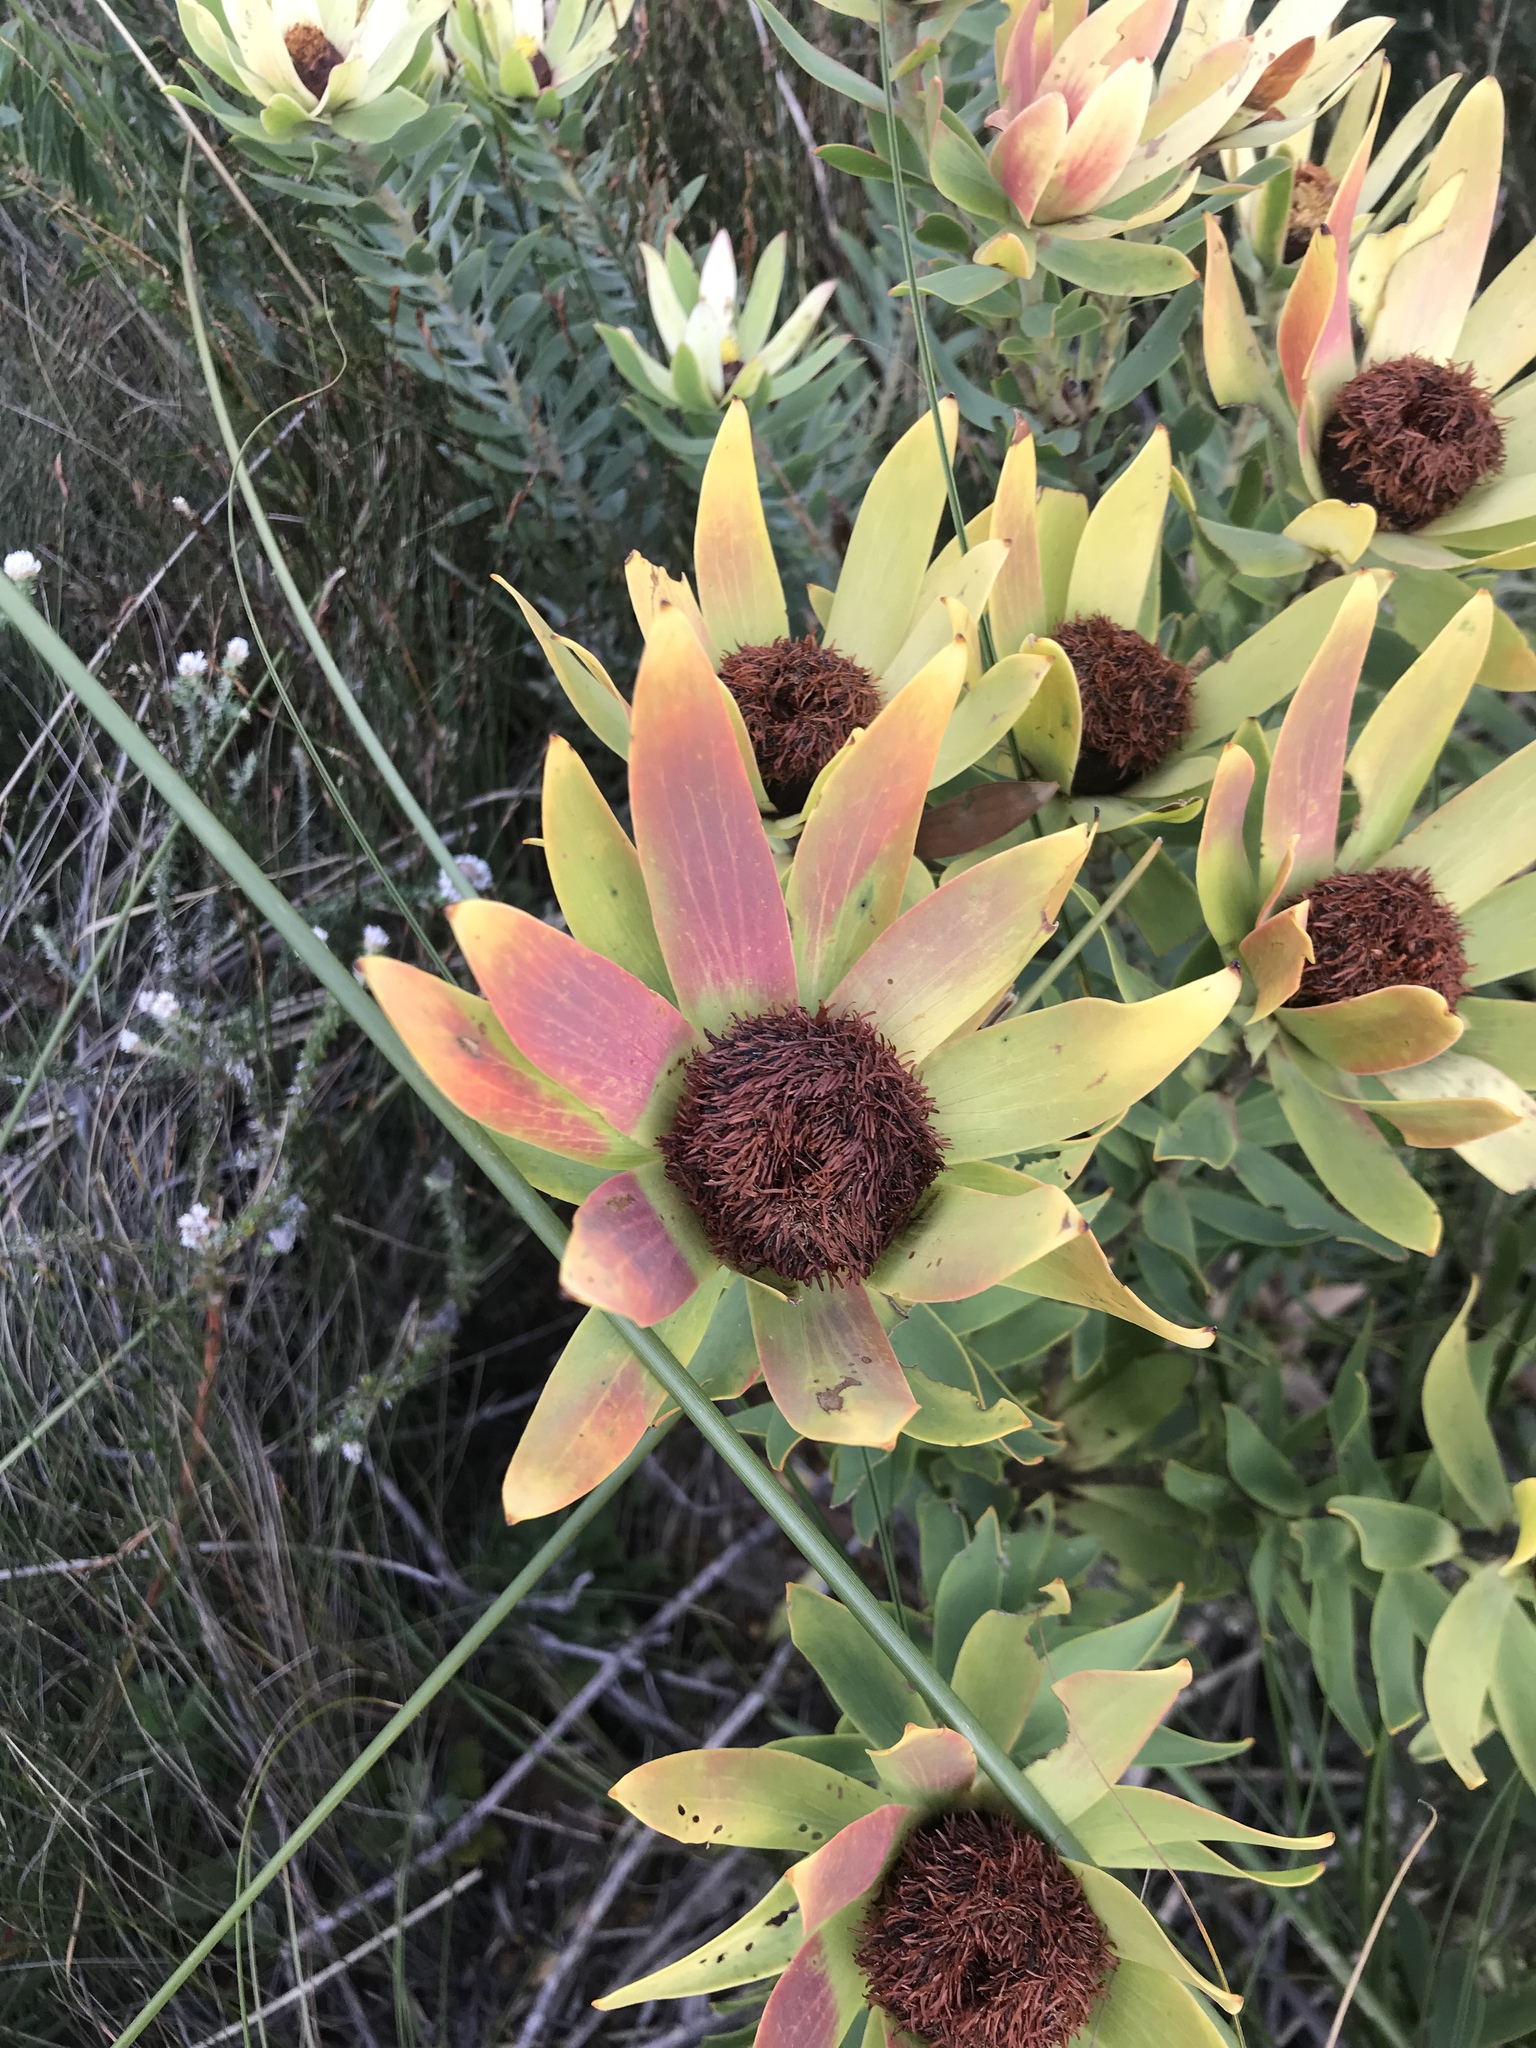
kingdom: Plantae
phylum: Tracheophyta
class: Magnoliopsida
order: Proteales
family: Proteaceae
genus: Leucadendron
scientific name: Leucadendron sessile
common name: Western sunbush
